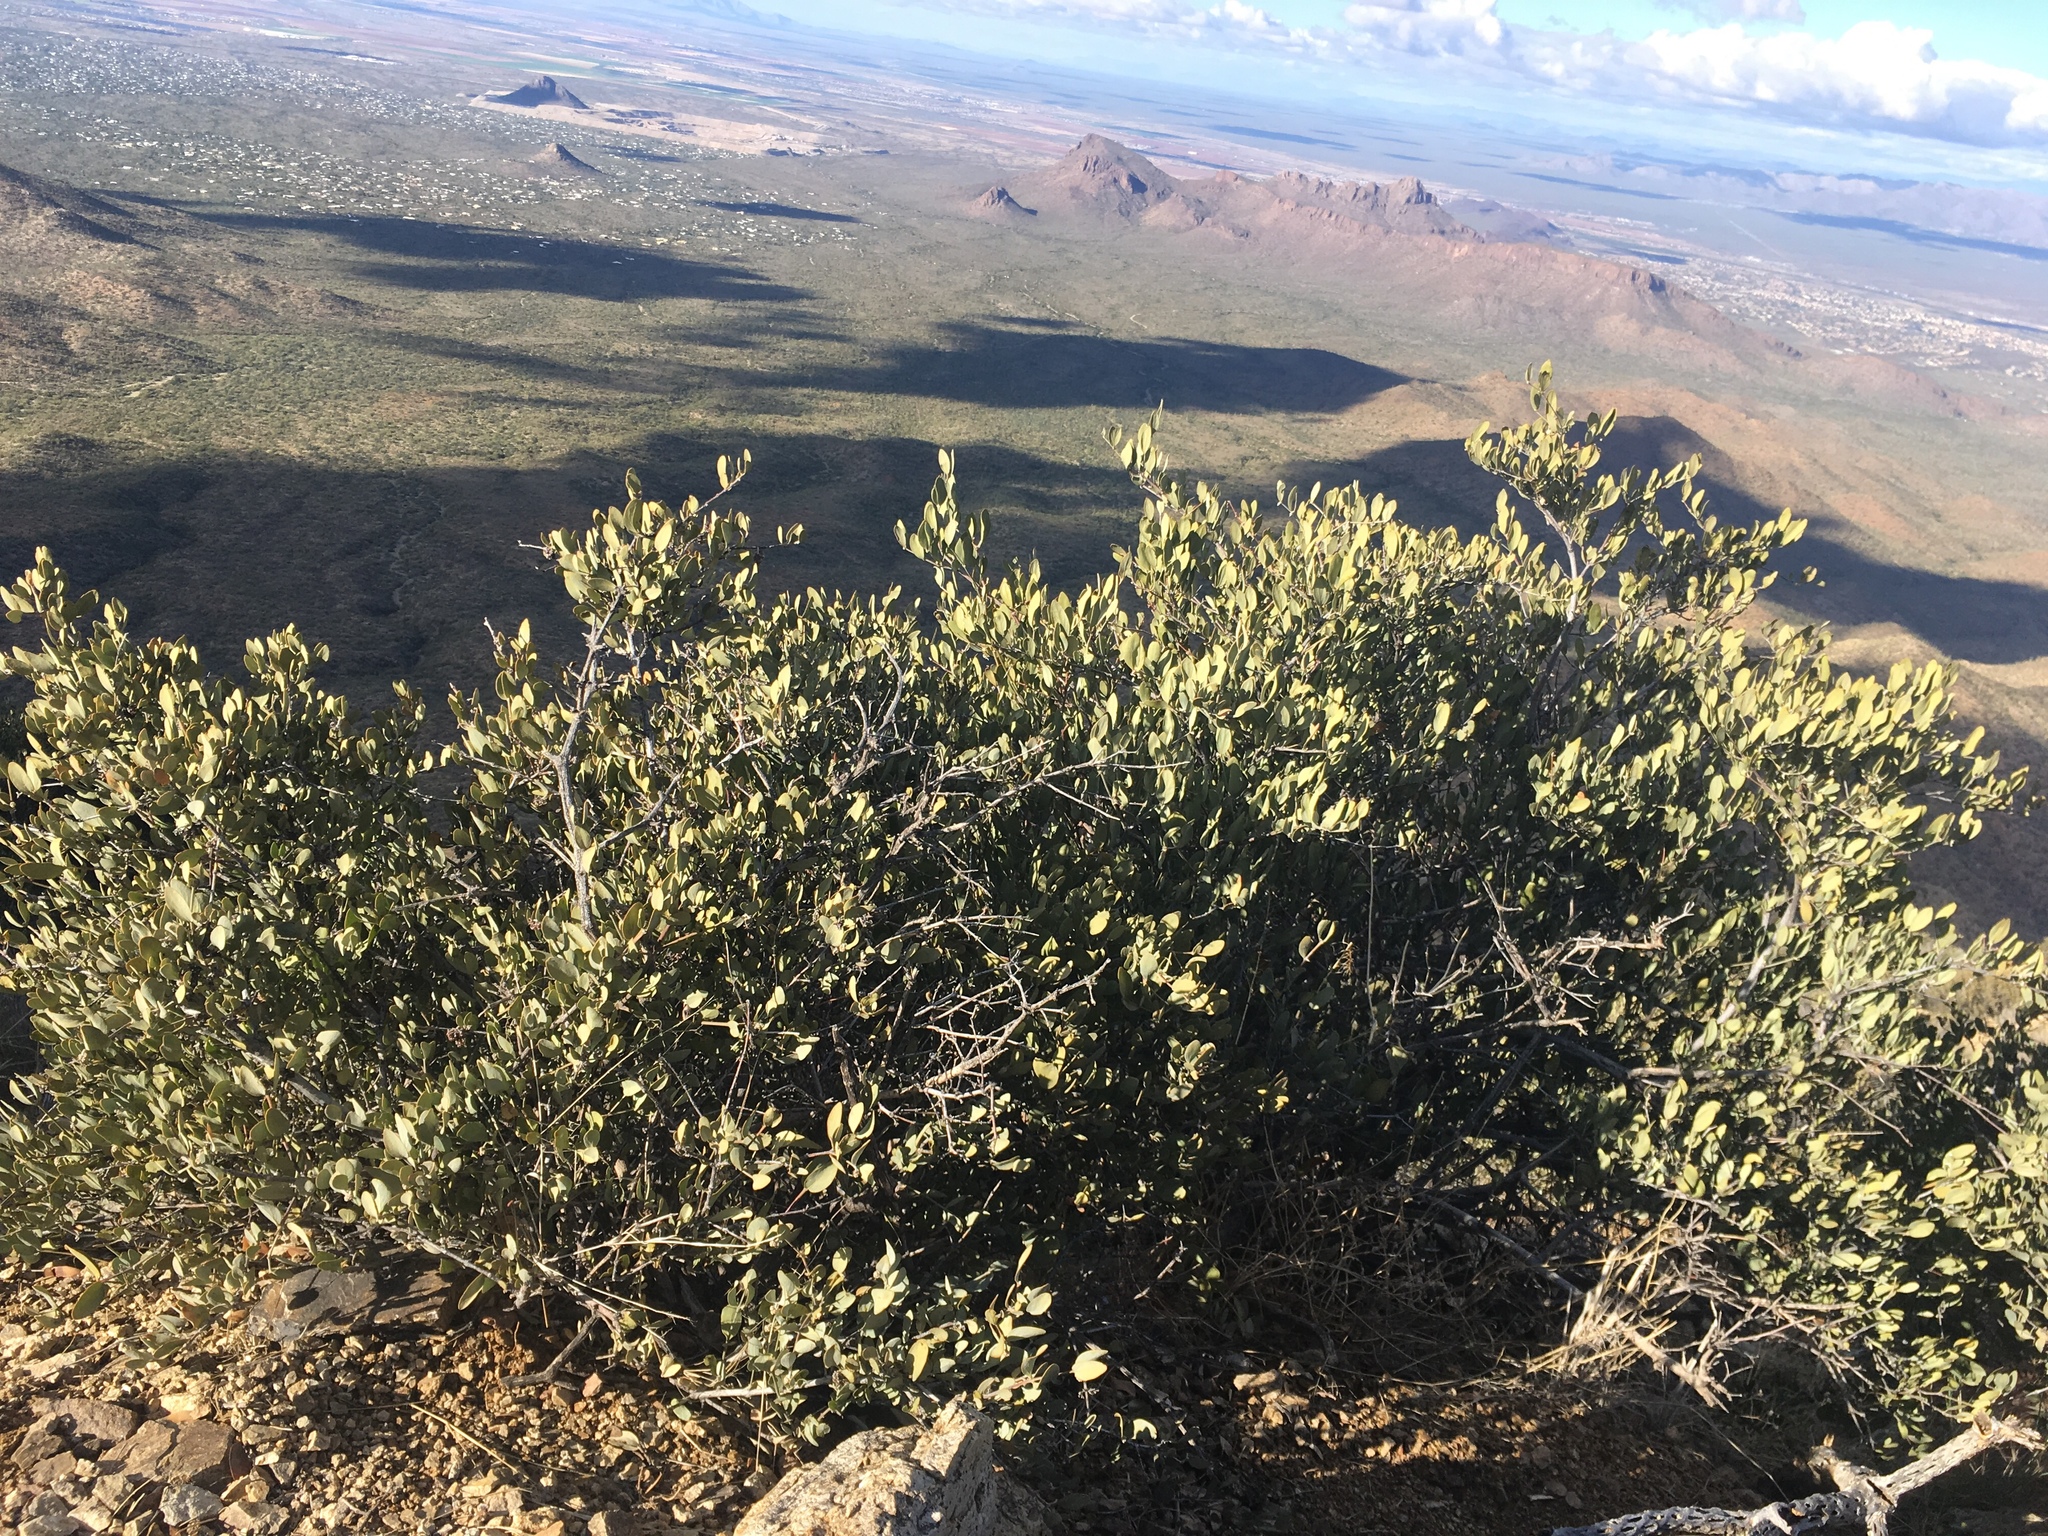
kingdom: Plantae
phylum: Tracheophyta
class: Magnoliopsida
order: Caryophyllales
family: Simmondsiaceae
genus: Simmondsia
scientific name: Simmondsia chinensis
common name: Jojoba
